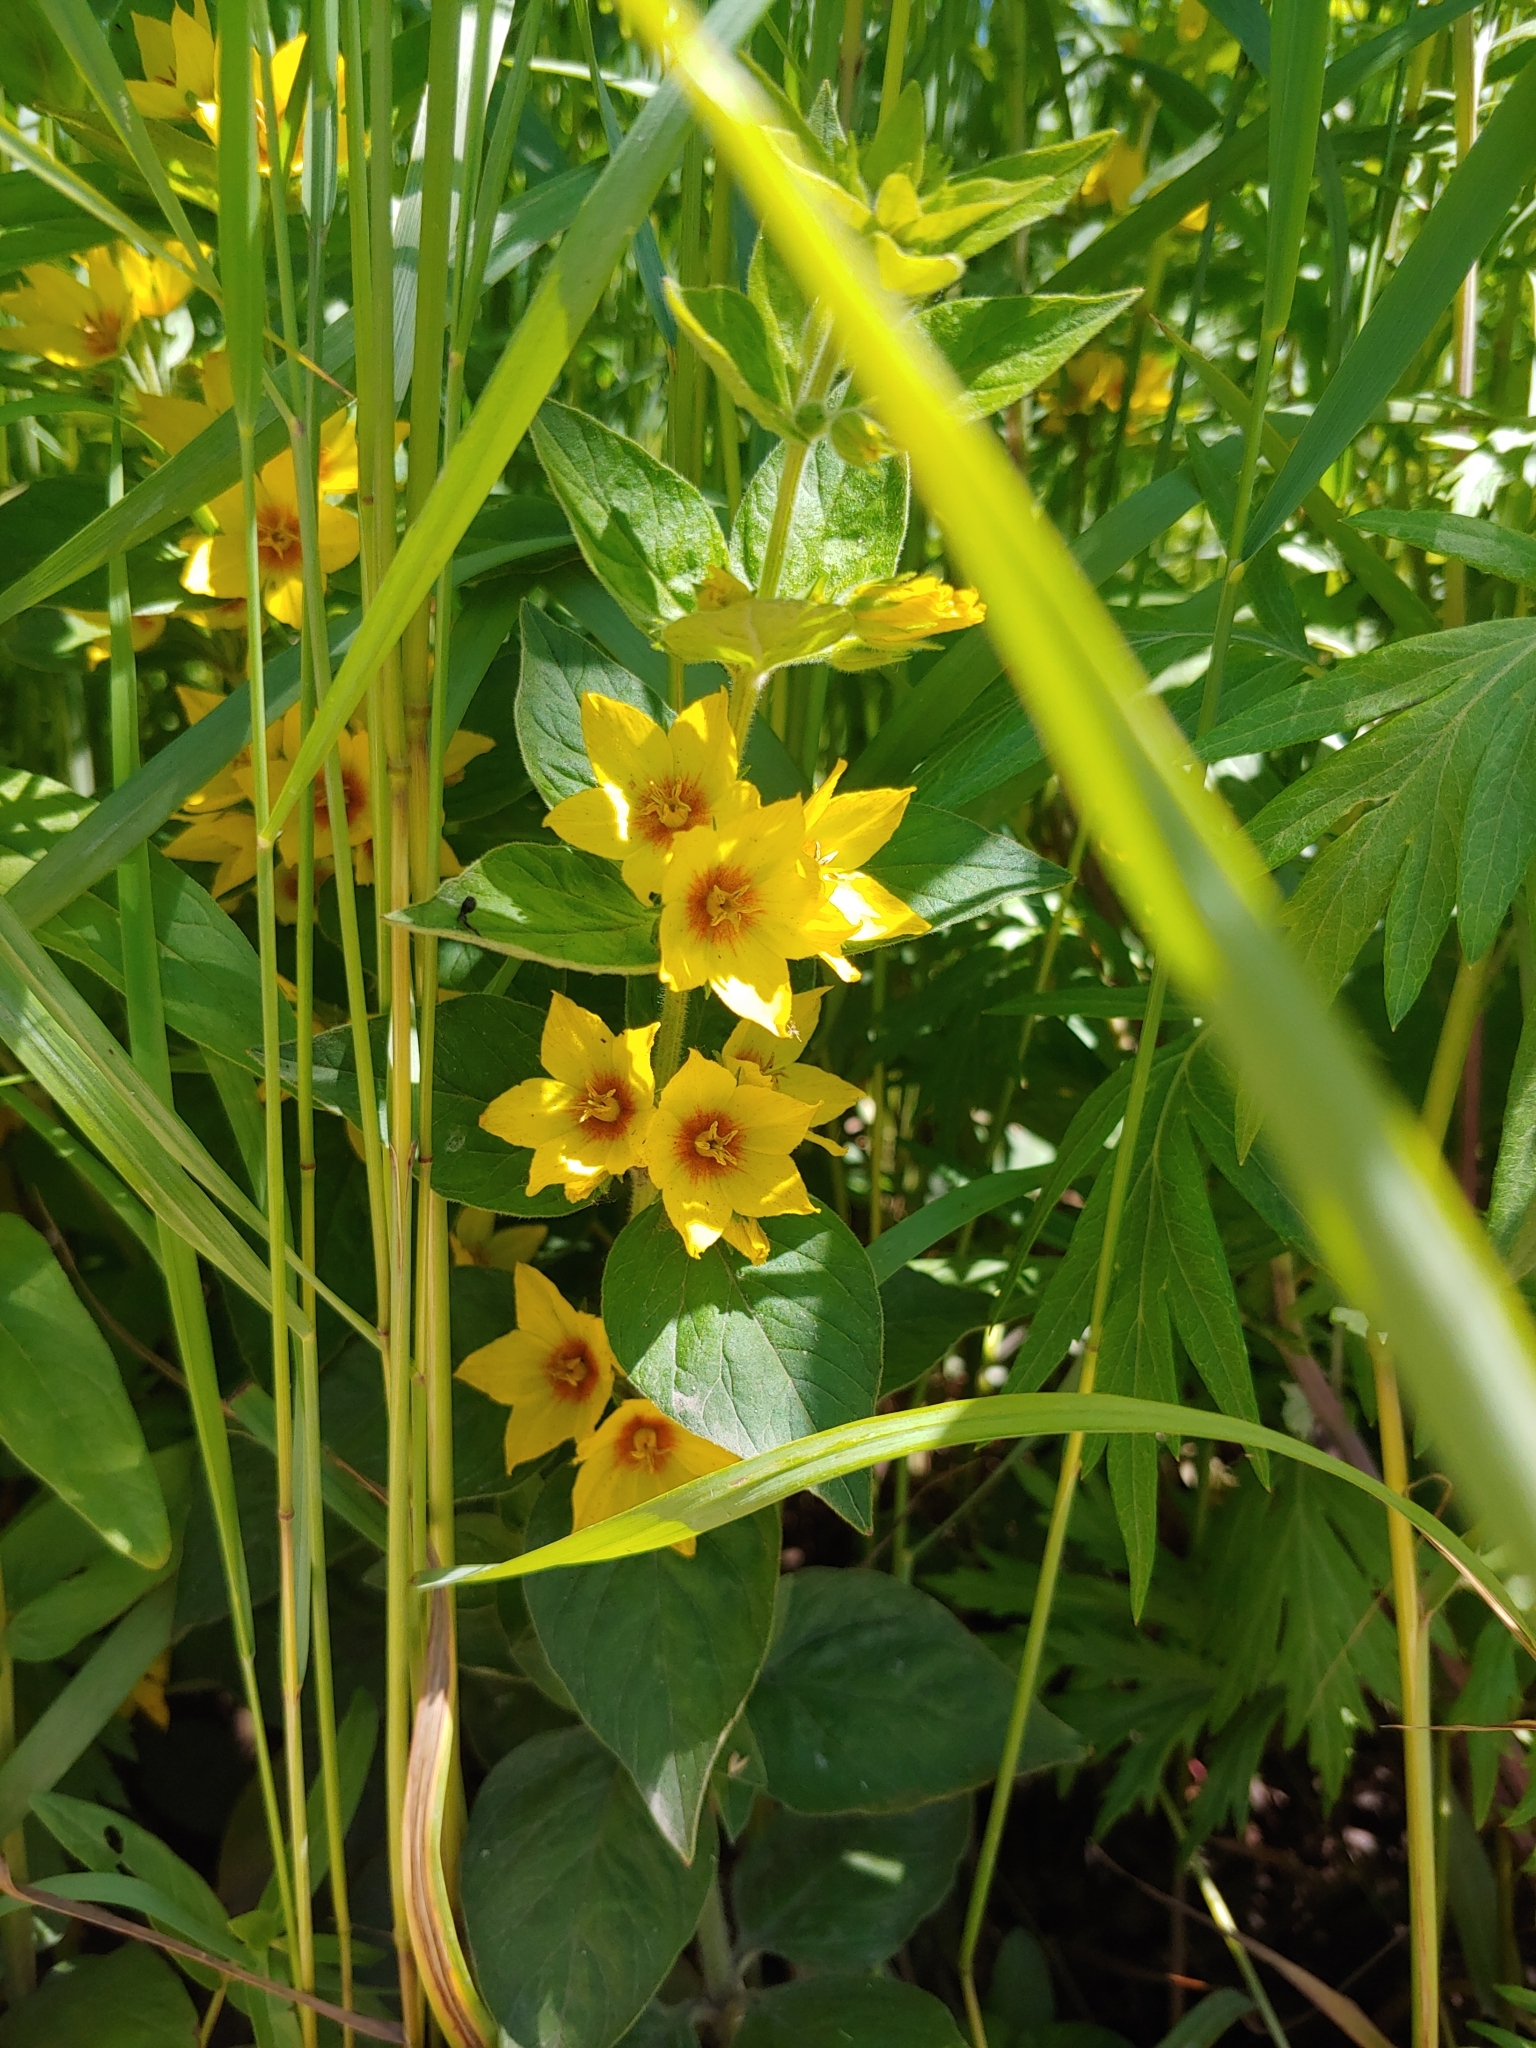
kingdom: Plantae
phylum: Tracheophyta
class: Magnoliopsida
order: Ericales
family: Primulaceae
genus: Lysimachia
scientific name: Lysimachia punctata
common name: Dotted loosestrife
